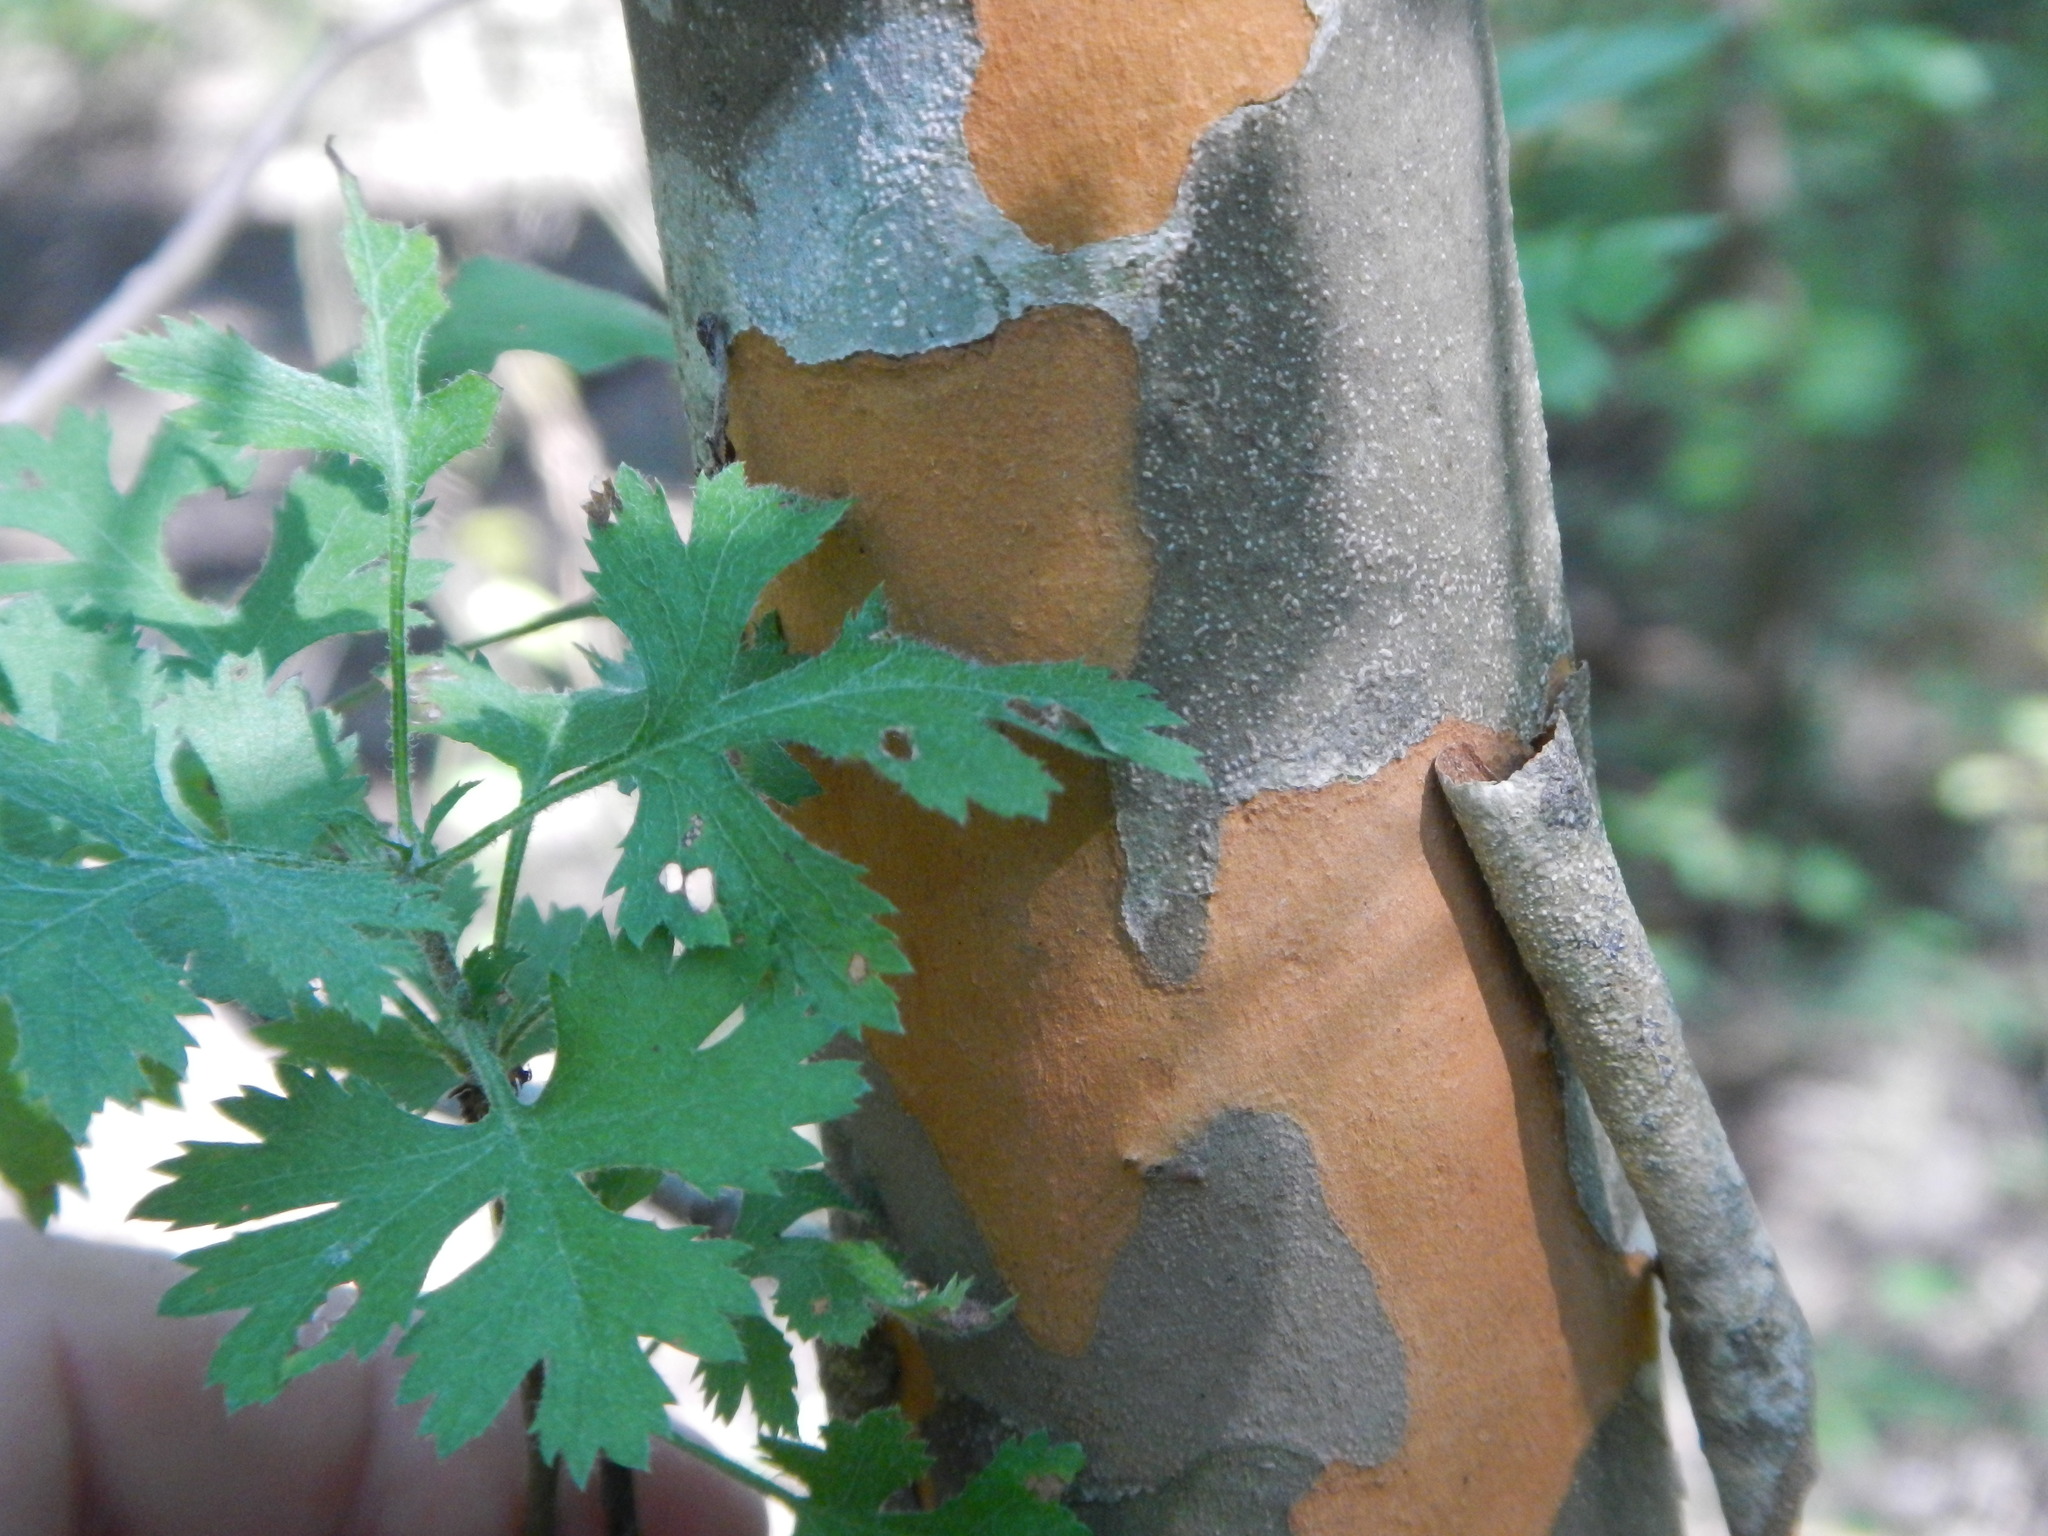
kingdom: Plantae
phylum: Tracheophyta
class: Magnoliopsida
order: Rosales
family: Rosaceae
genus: Crataegus
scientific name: Crataegus marshallii
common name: Parsley-hawthorn
